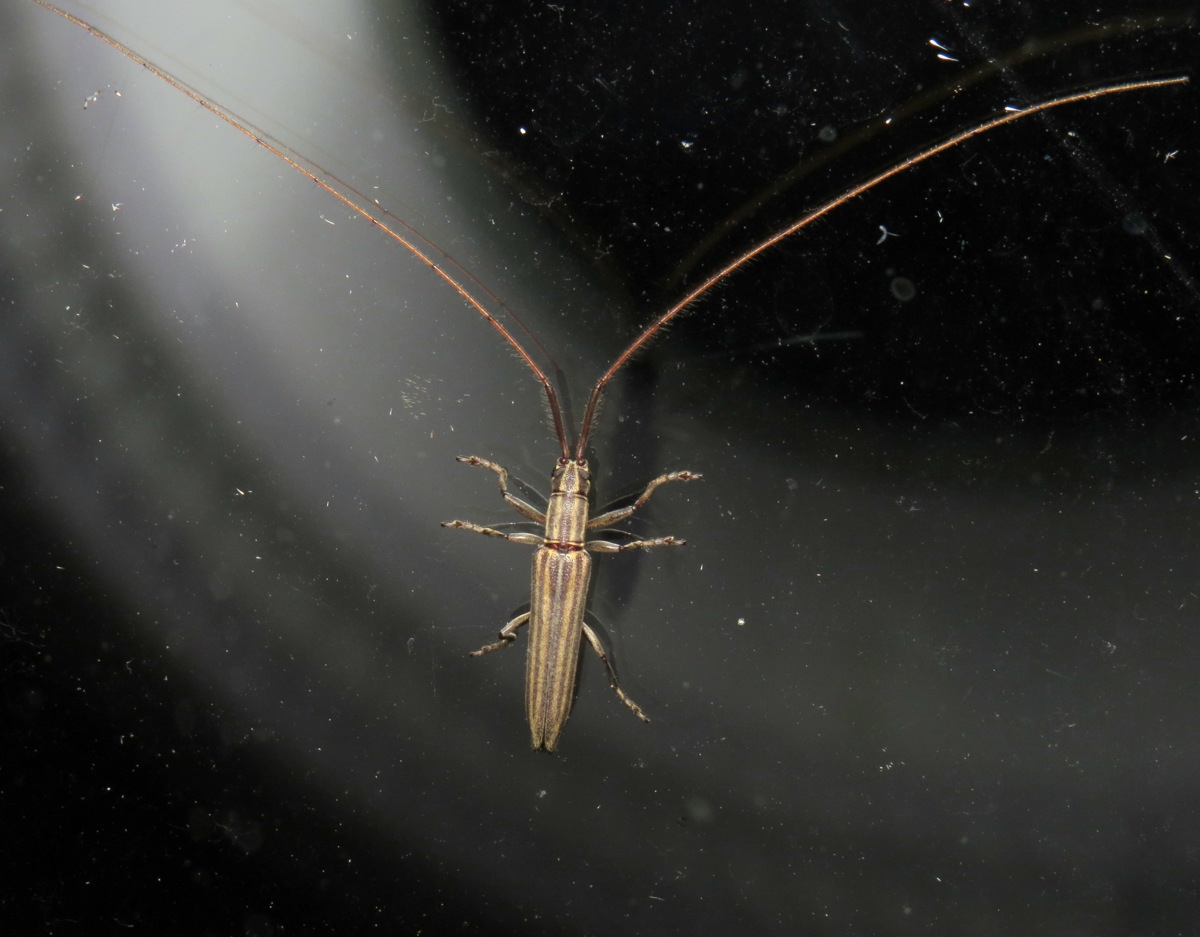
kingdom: Animalia
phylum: Arthropoda
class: Insecta
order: Coleoptera
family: Cerambycidae
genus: Hippopsis
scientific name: Hippopsis
